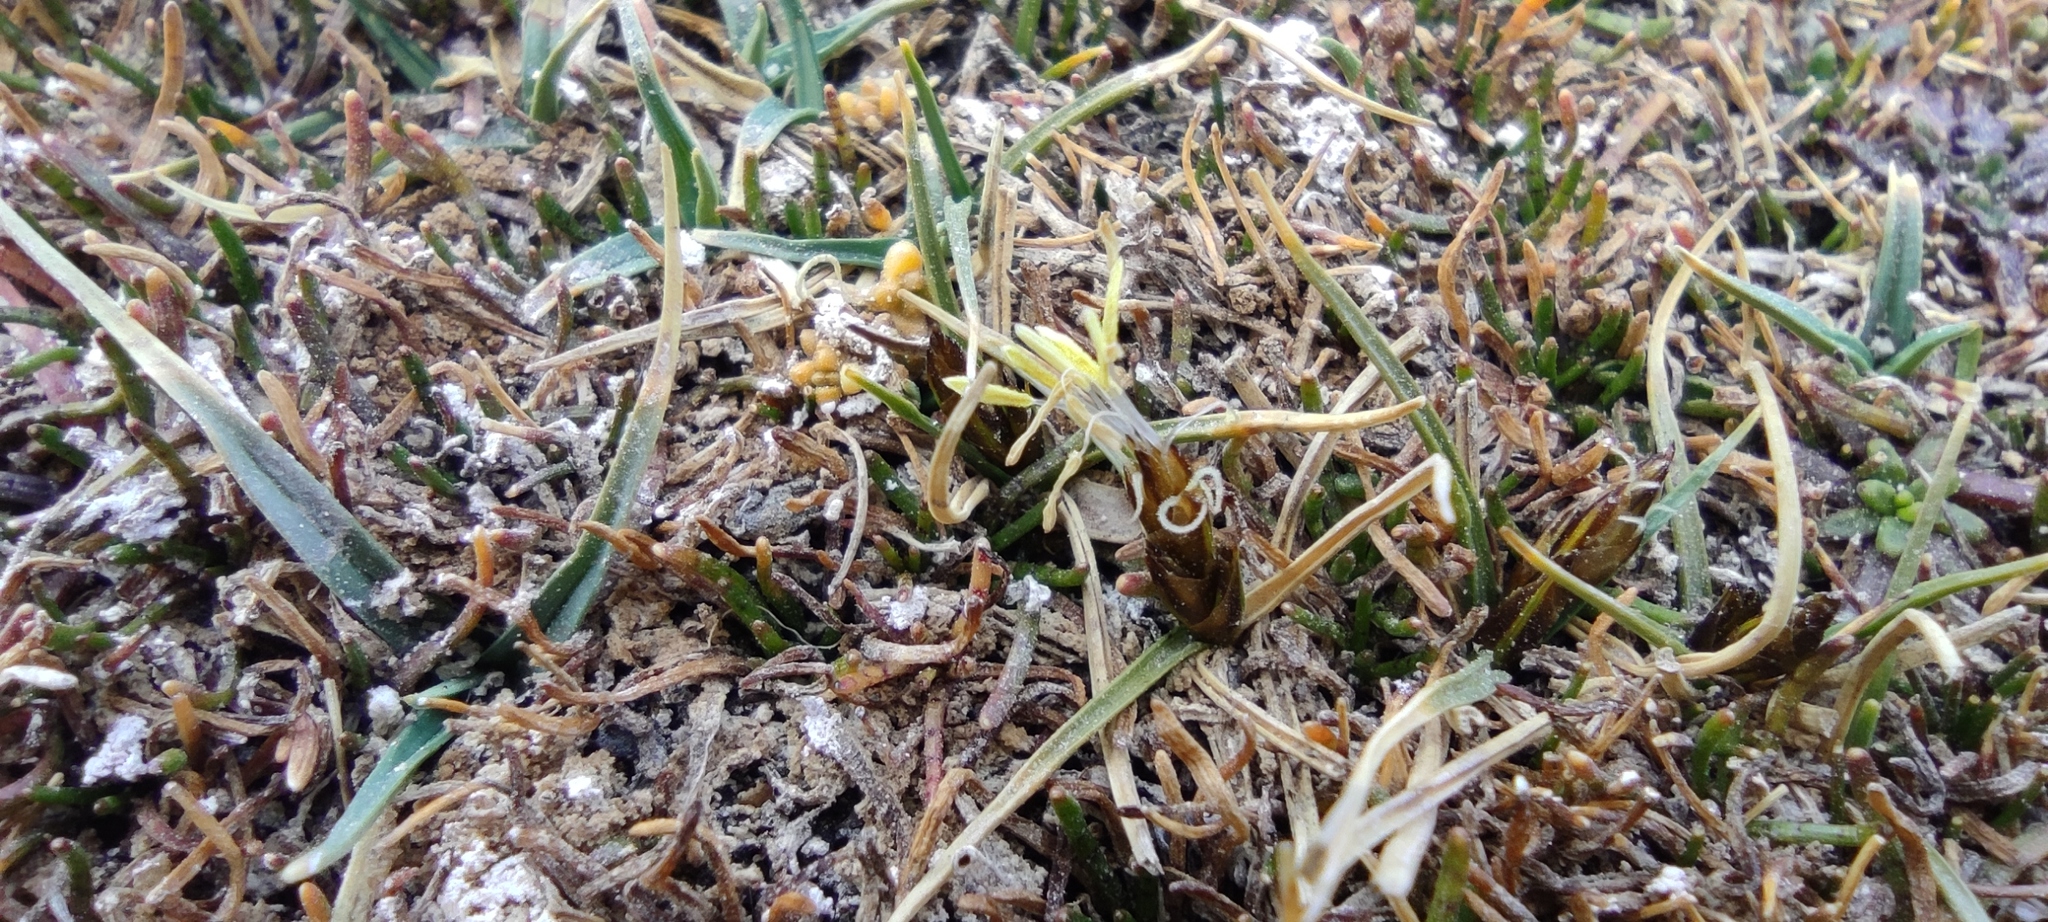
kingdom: Plantae
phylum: Tracheophyta
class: Liliopsida
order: Poales
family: Cyperaceae
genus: Carex
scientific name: Carex collumanthus
